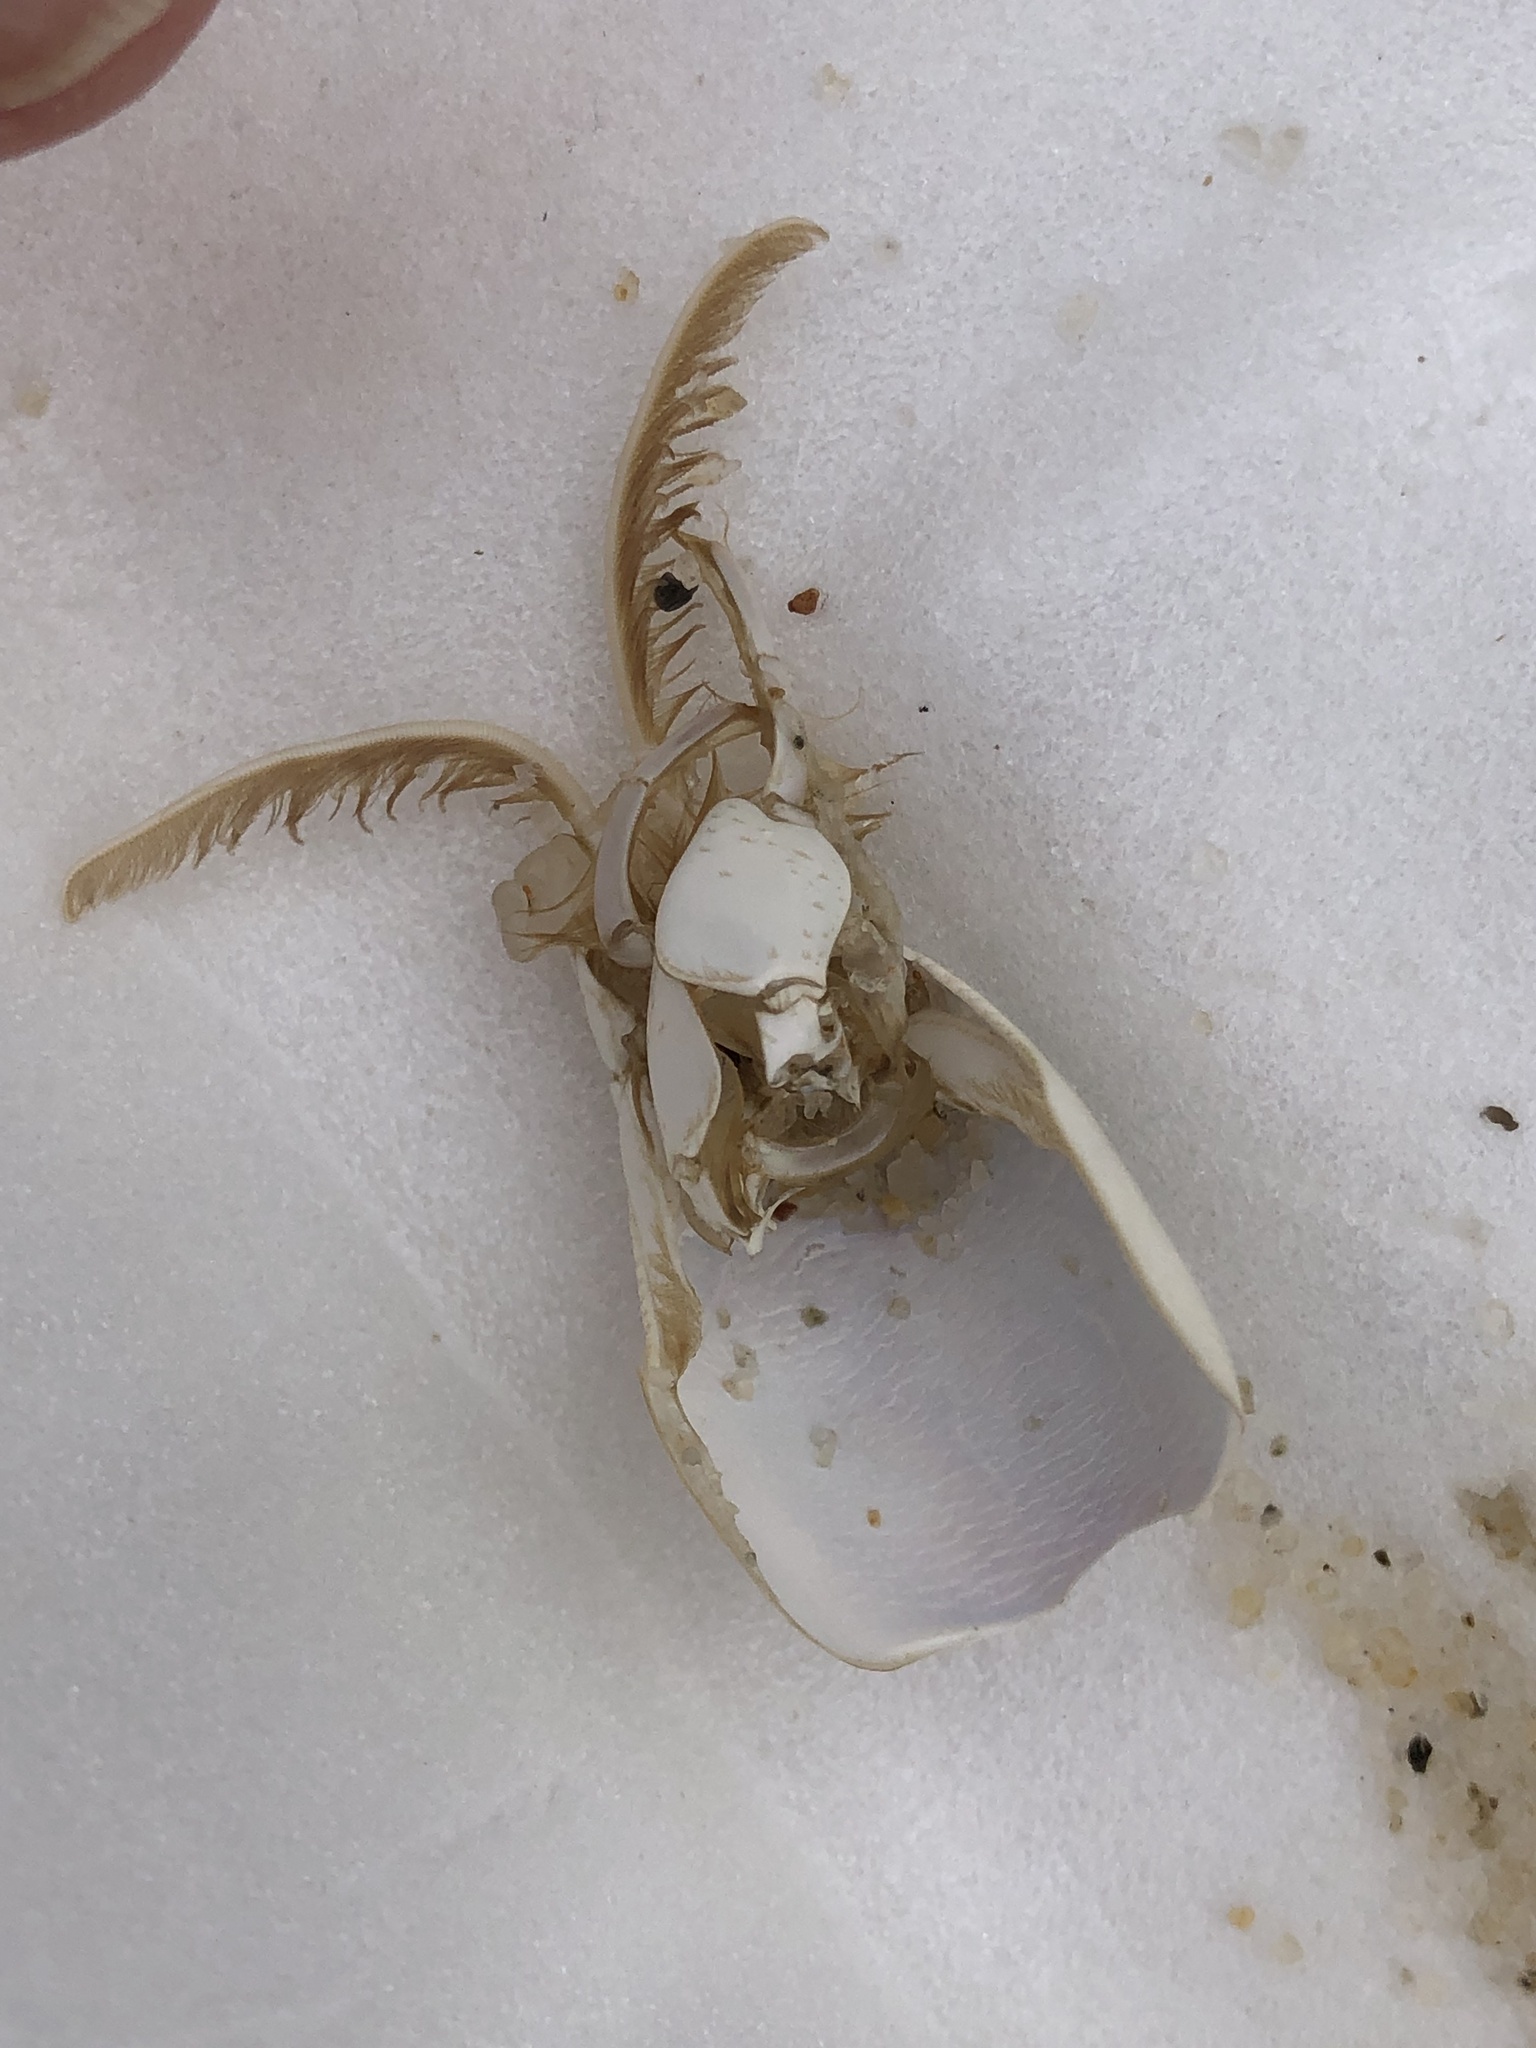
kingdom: Animalia
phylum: Arthropoda
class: Malacostraca
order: Decapoda
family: Hippidae
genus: Emerita
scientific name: Emerita emeritus
